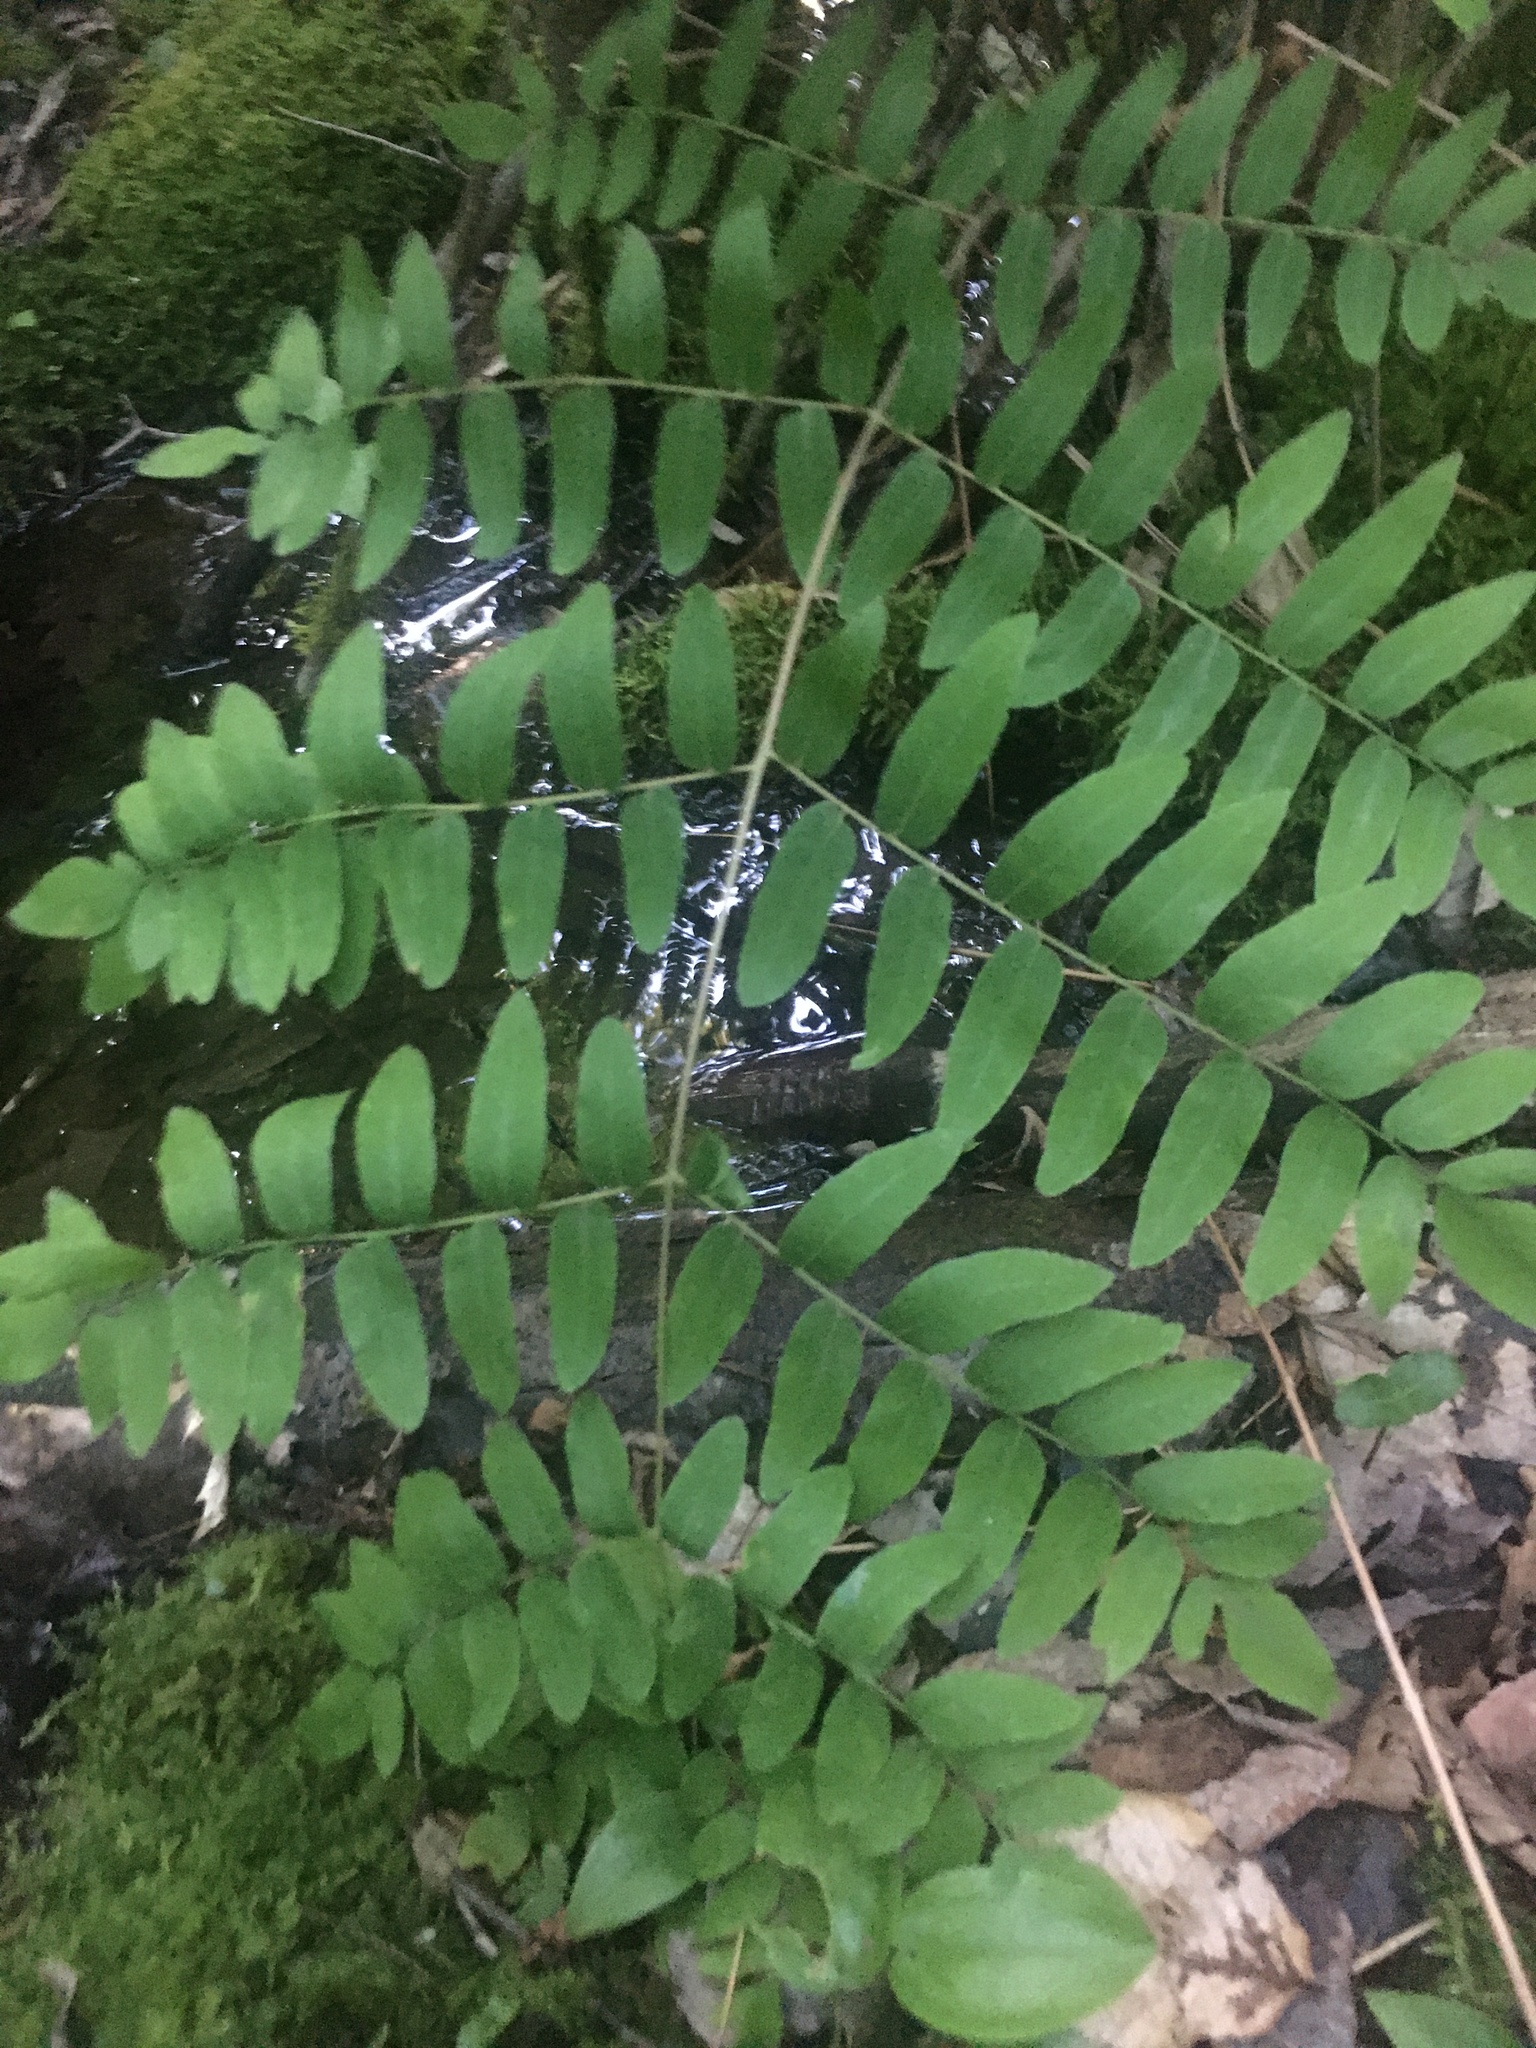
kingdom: Plantae
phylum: Tracheophyta
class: Polypodiopsida
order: Osmundales
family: Osmundaceae
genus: Osmunda
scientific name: Osmunda spectabilis
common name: American royal fern
